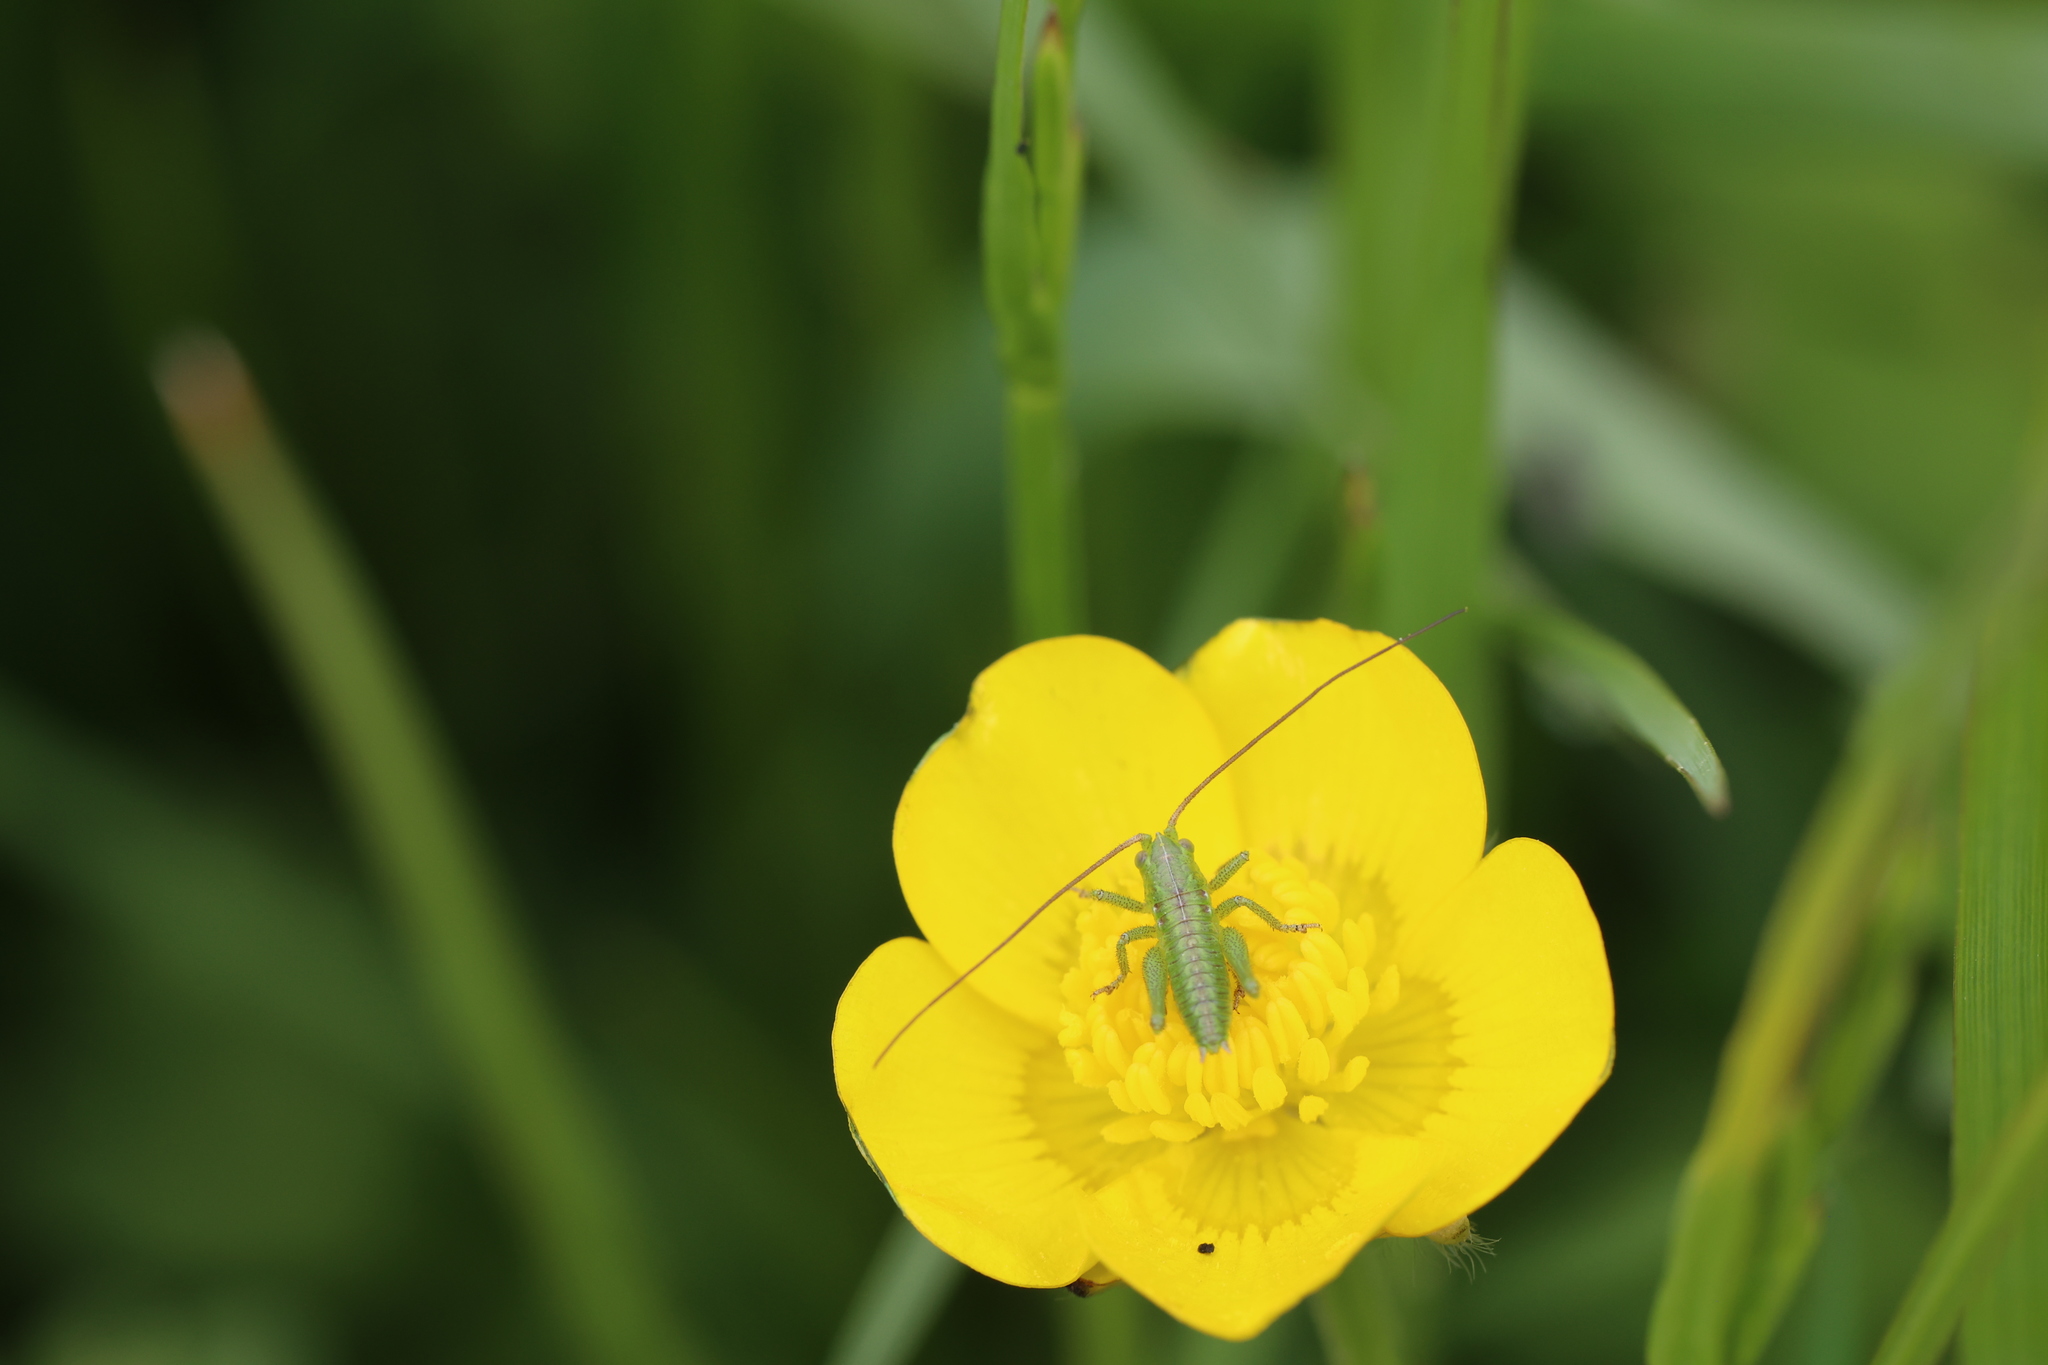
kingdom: Animalia
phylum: Arthropoda
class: Insecta
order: Orthoptera
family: Tettigoniidae
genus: Tettigonia
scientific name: Tettigonia viridissima
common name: Great green bush-cricket
